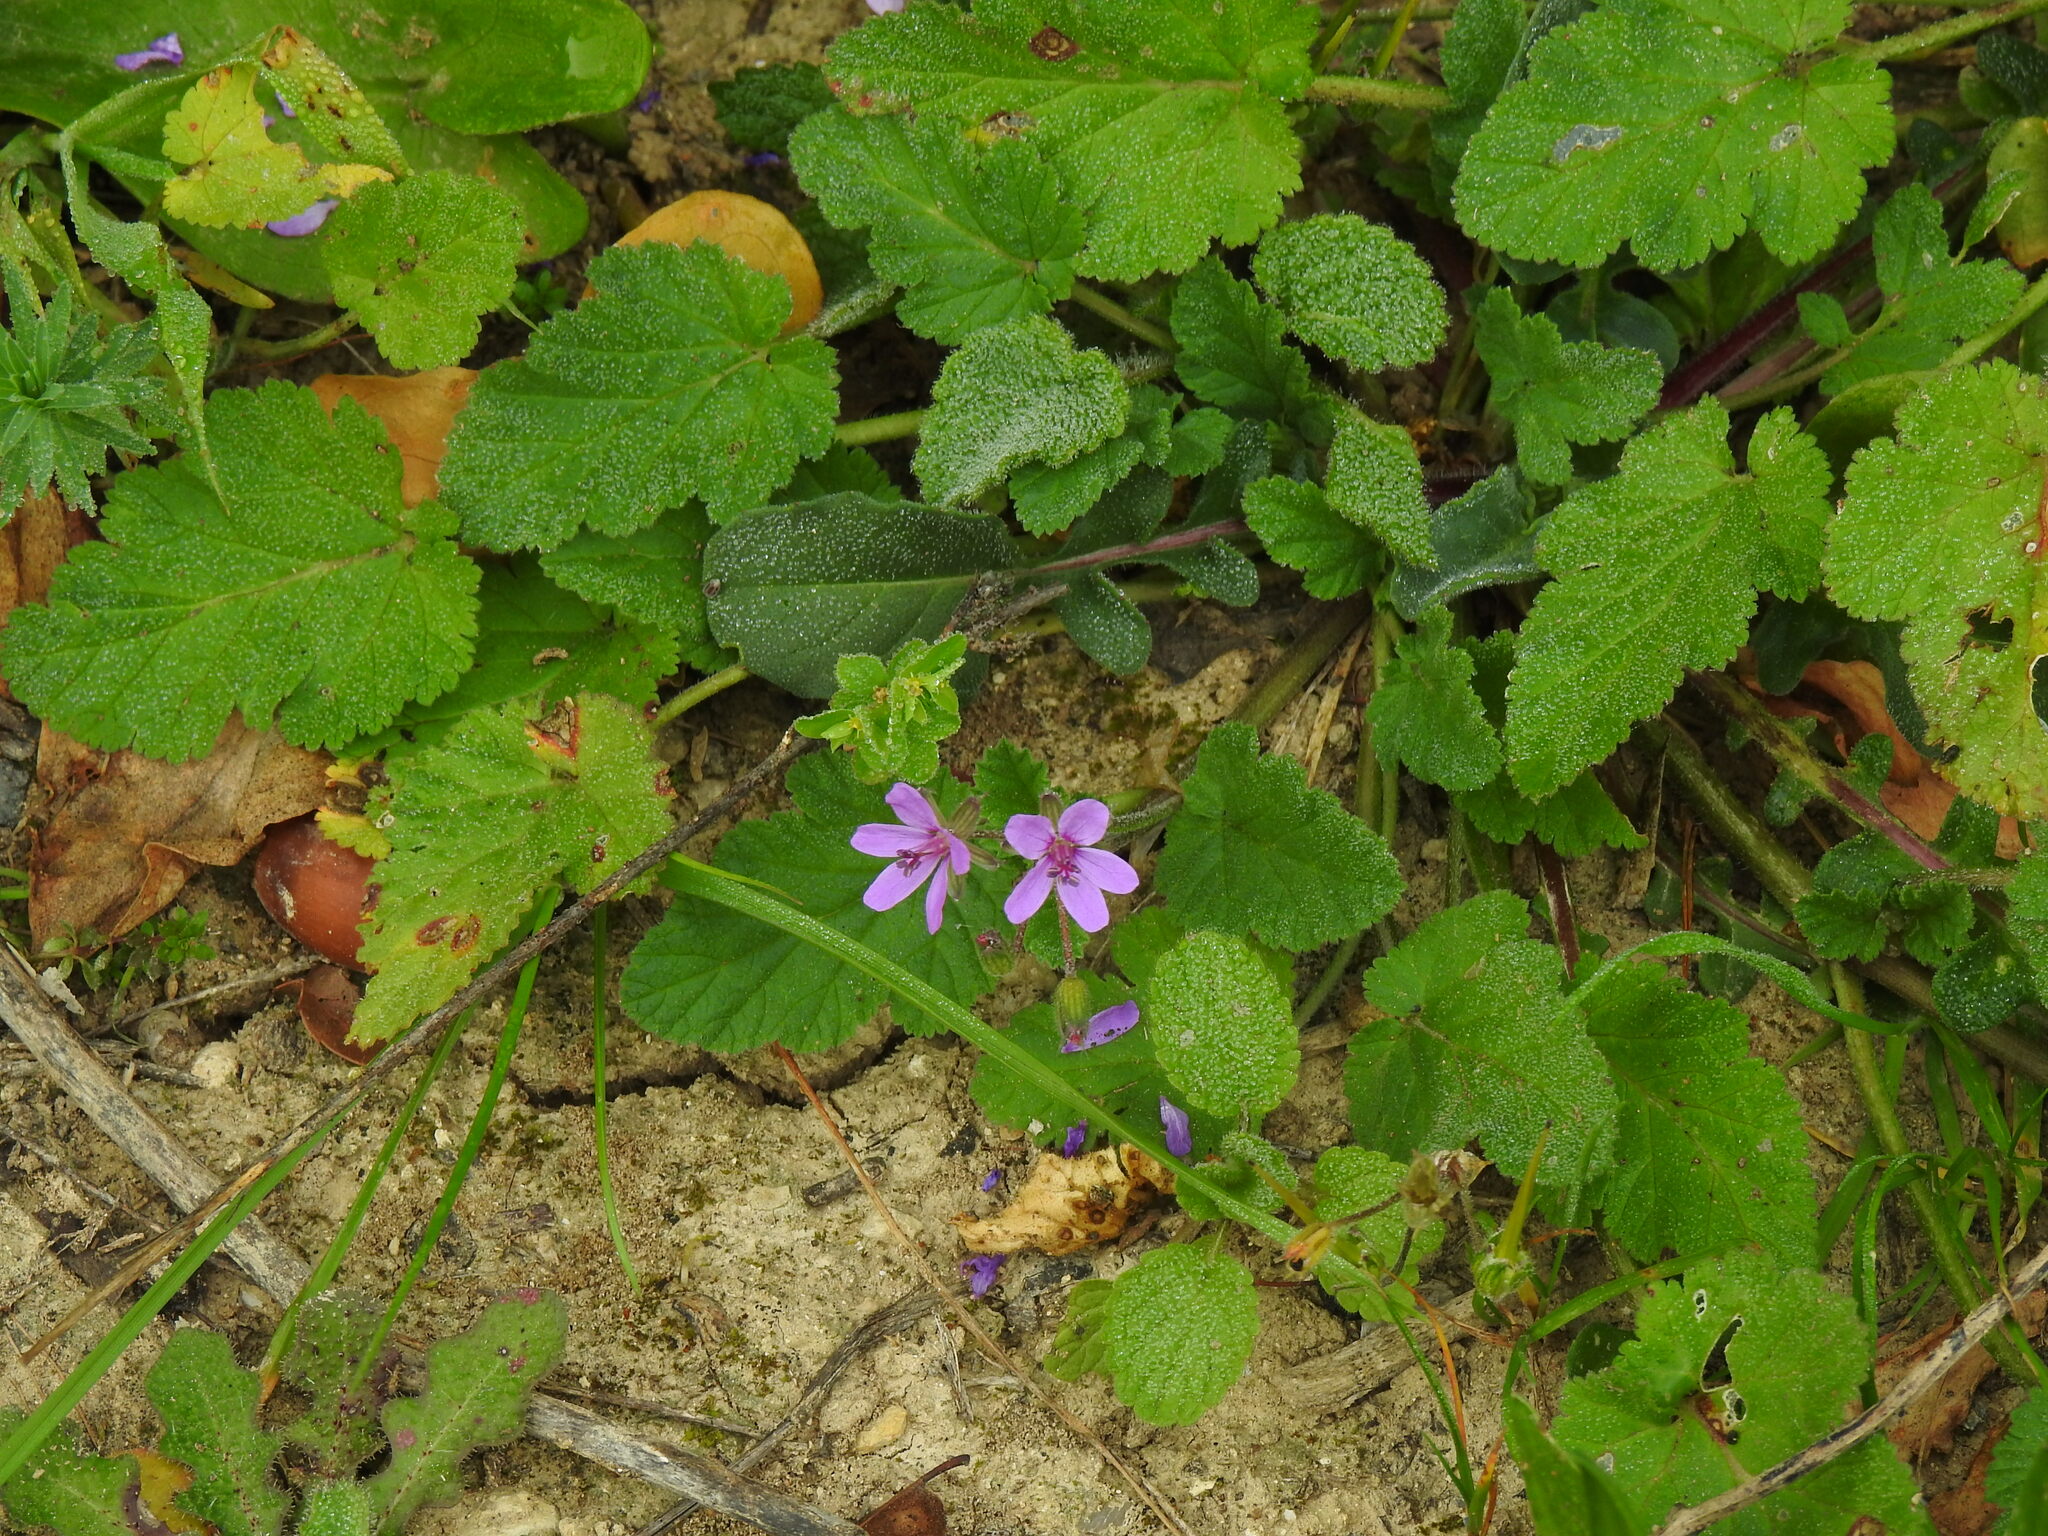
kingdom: Plantae
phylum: Tracheophyta
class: Magnoliopsida
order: Geraniales
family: Geraniaceae
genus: Erodium
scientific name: Erodium malacoides
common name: Soft stork's-bill
